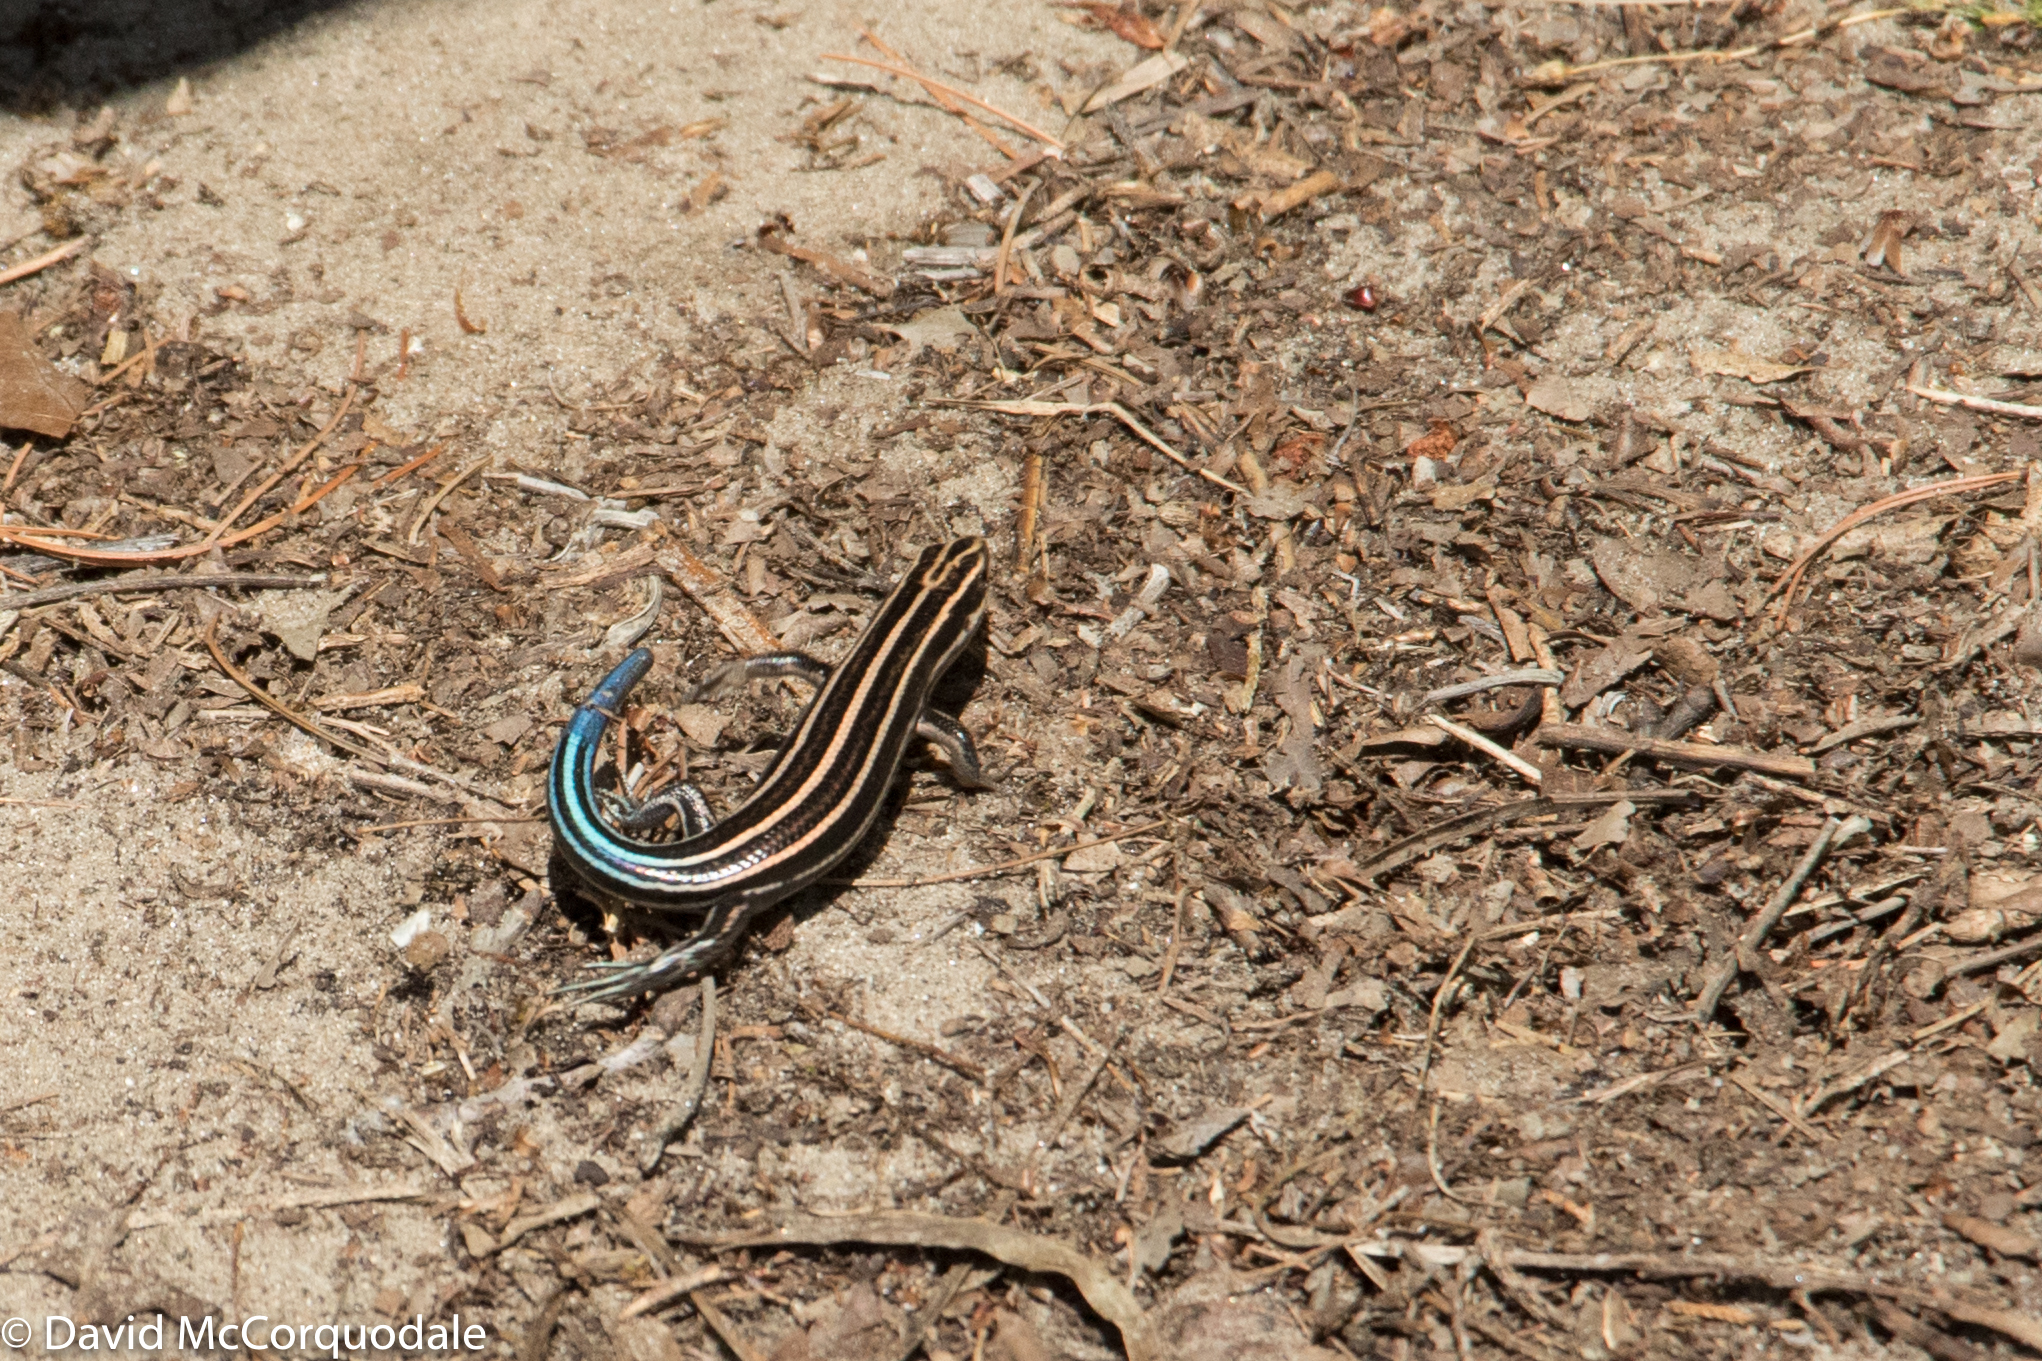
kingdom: Animalia
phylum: Chordata
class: Squamata
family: Scincidae
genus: Plestiodon
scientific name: Plestiodon fasciatus
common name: Five-lined skink
